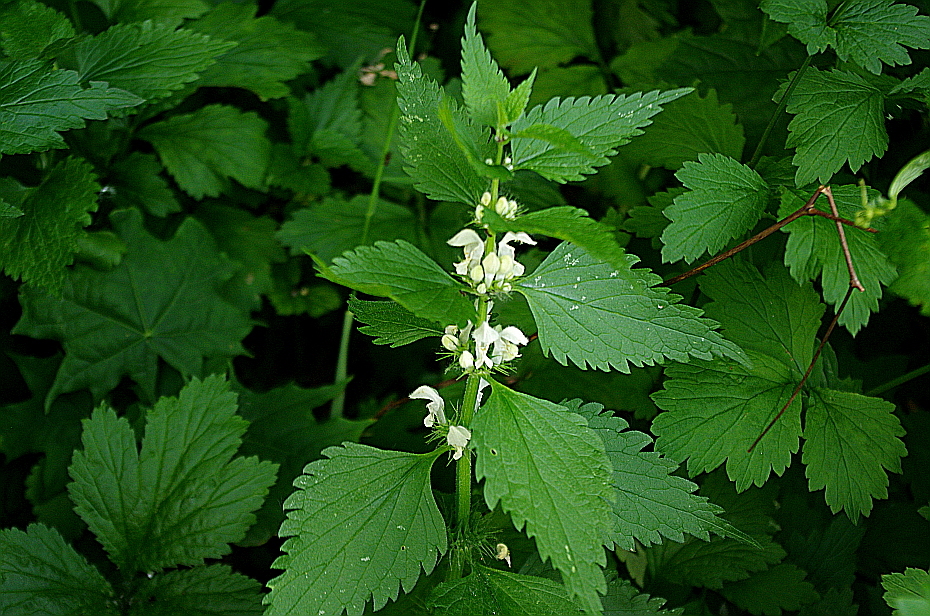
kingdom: Plantae
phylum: Tracheophyta
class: Magnoliopsida
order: Lamiales
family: Lamiaceae
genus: Lamium
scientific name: Lamium album
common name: White dead-nettle
